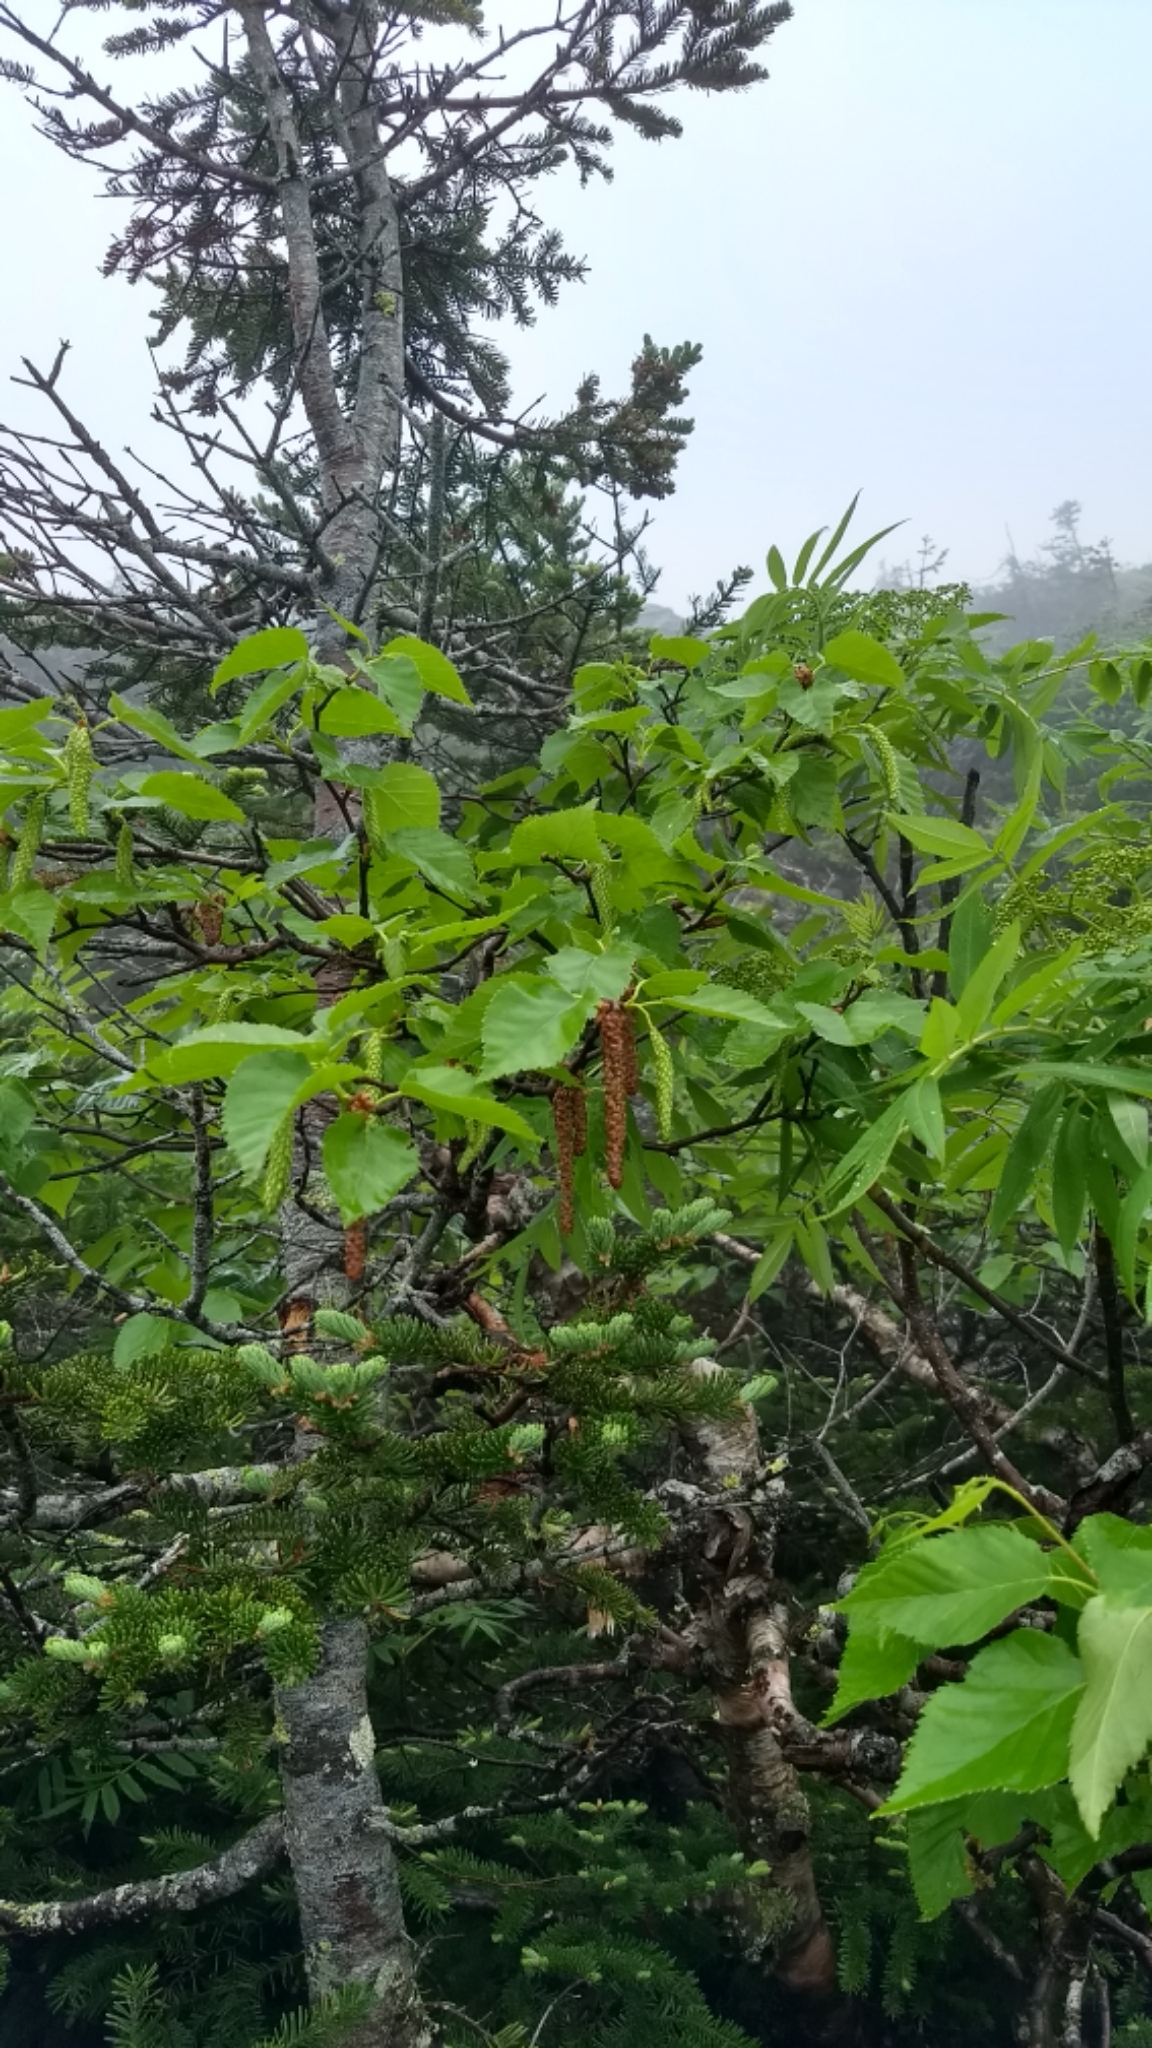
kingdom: Plantae
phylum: Tracheophyta
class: Magnoliopsida
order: Fagales
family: Betulaceae
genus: Betula
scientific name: Betula cordifolia
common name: Mountain white birch
